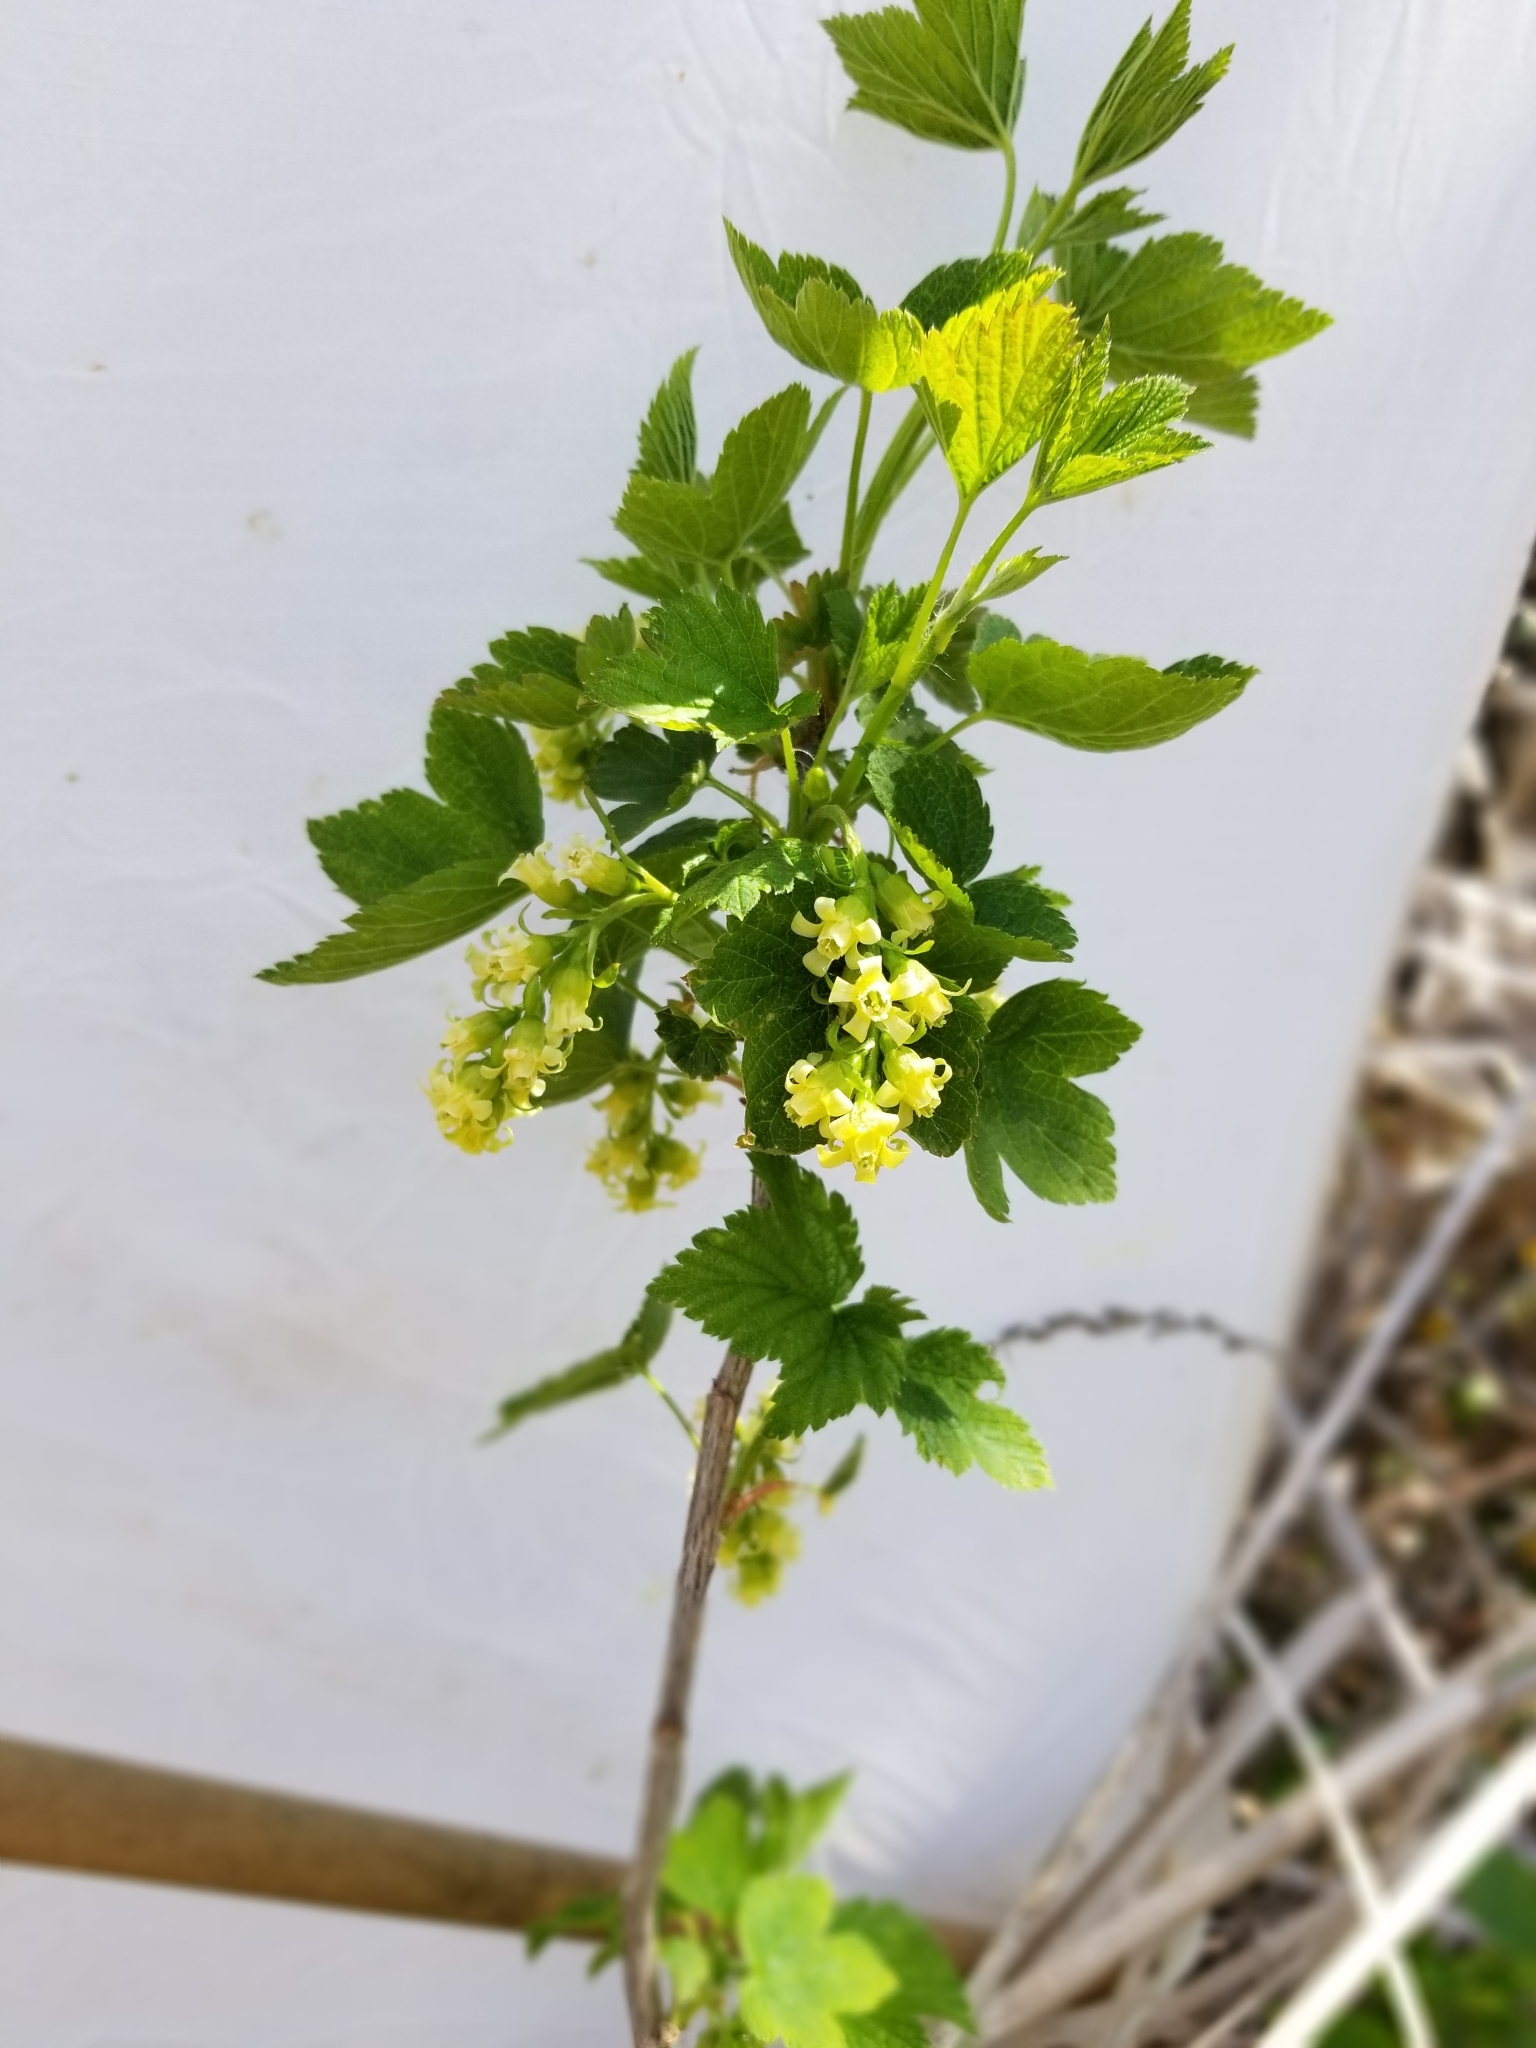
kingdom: Plantae
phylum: Tracheophyta
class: Magnoliopsida
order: Saxifragales
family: Grossulariaceae
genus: Ribes
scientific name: Ribes americanum
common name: American black currant
